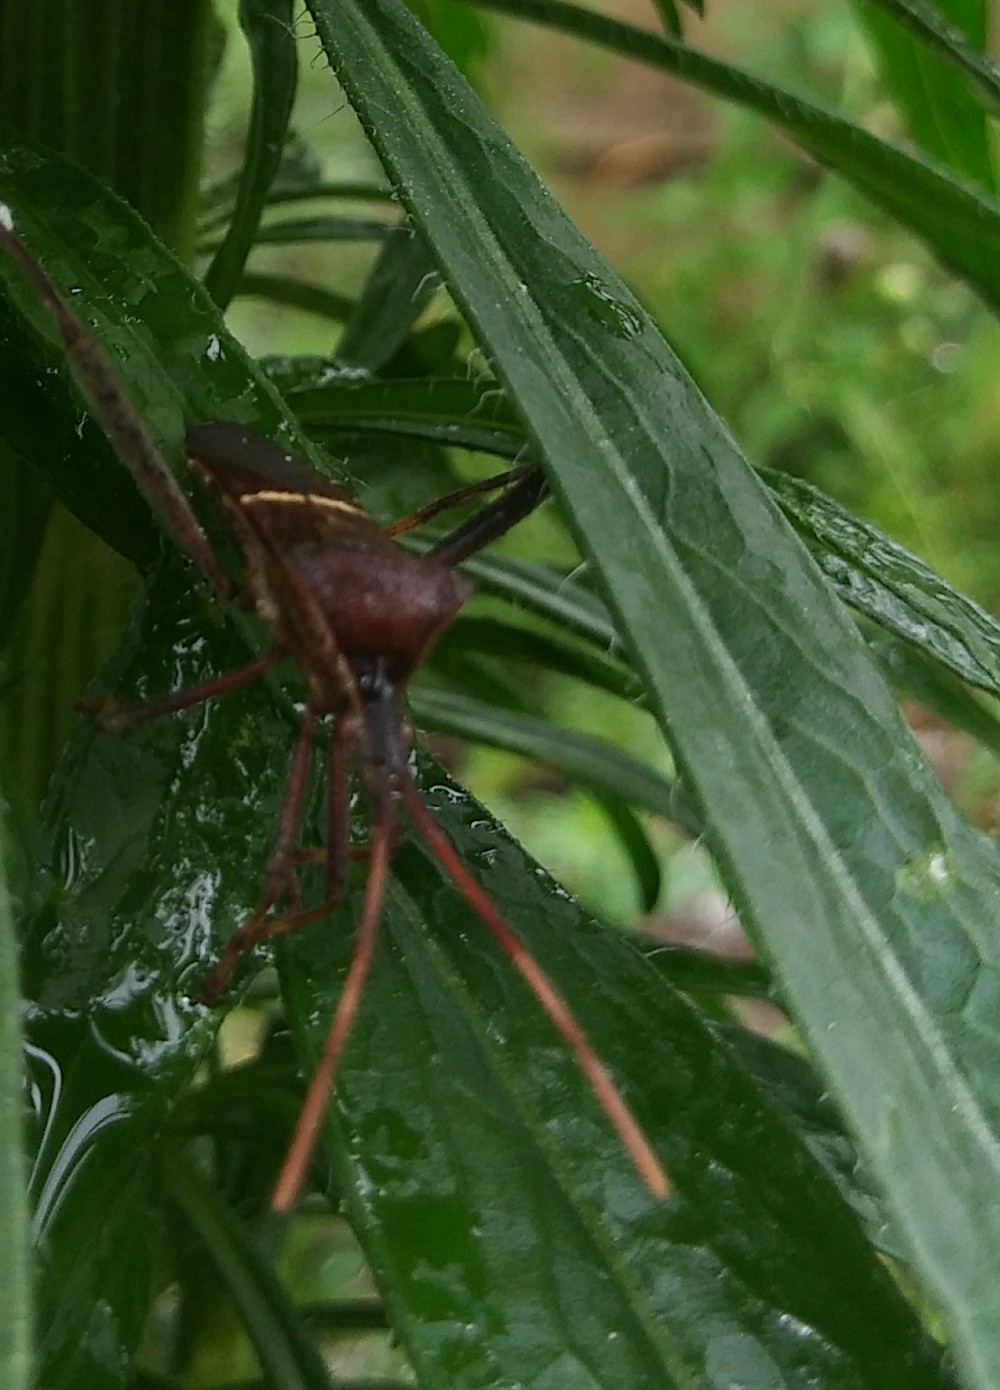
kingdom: Animalia
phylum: Arthropoda
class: Insecta
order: Hemiptera
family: Coreidae
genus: Leptoglossus
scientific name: Leptoglossus phyllopus
